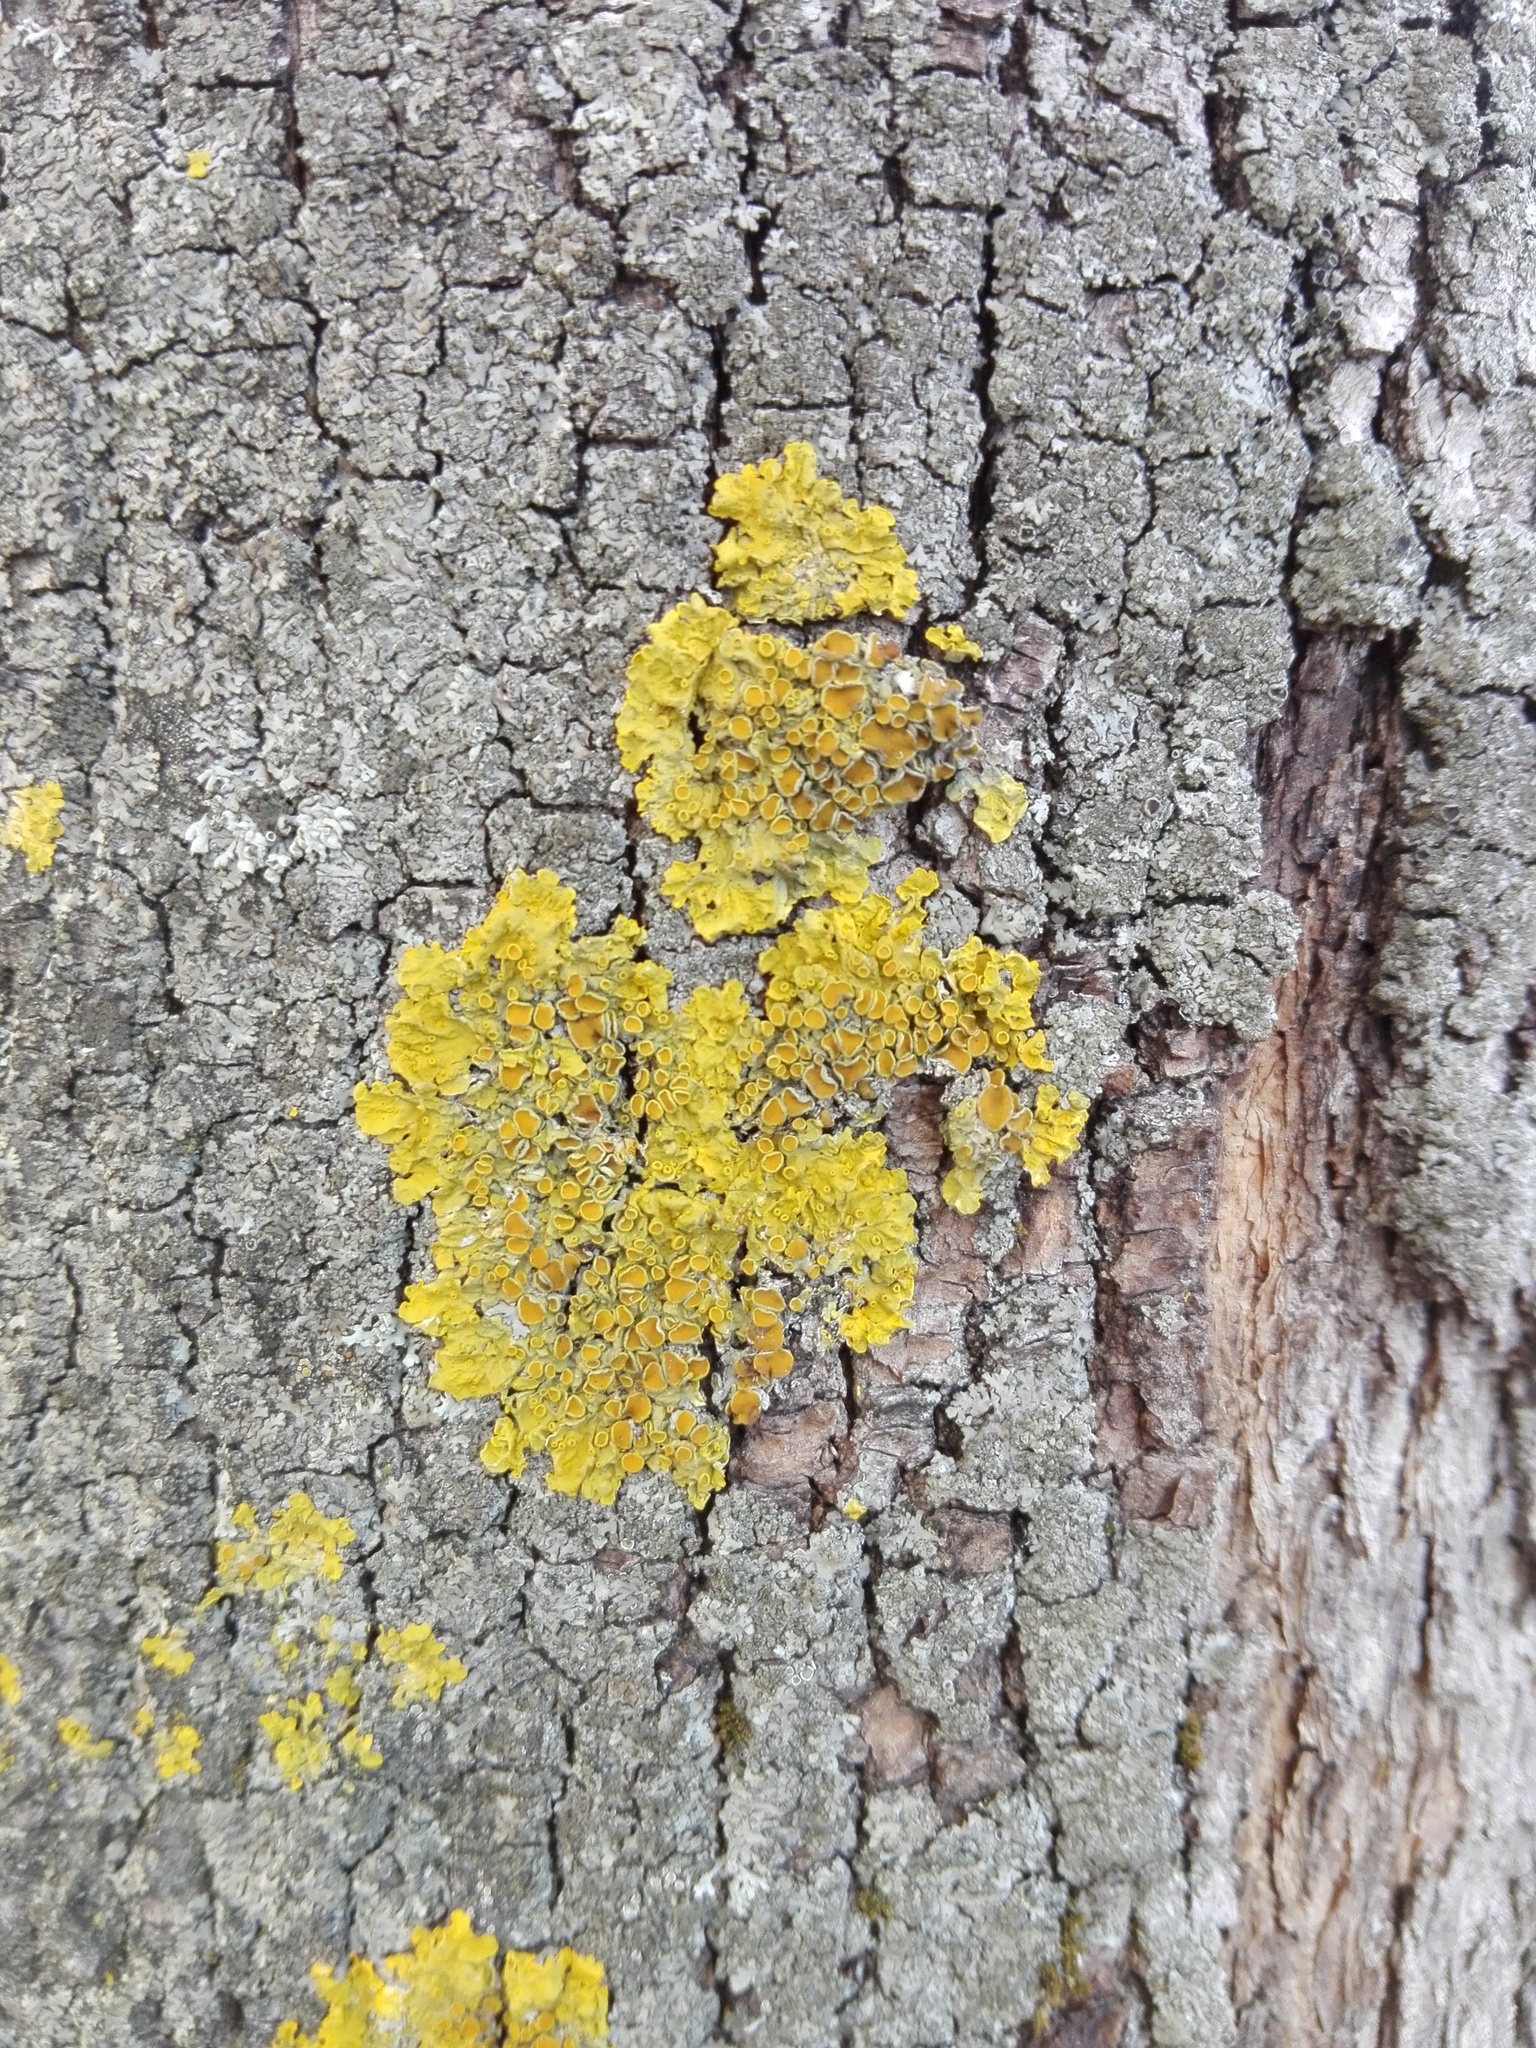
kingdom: Fungi
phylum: Ascomycota
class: Lecanoromycetes
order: Teloschistales
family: Teloschistaceae
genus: Xanthoria
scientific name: Xanthoria parietina
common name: Common orange lichen
